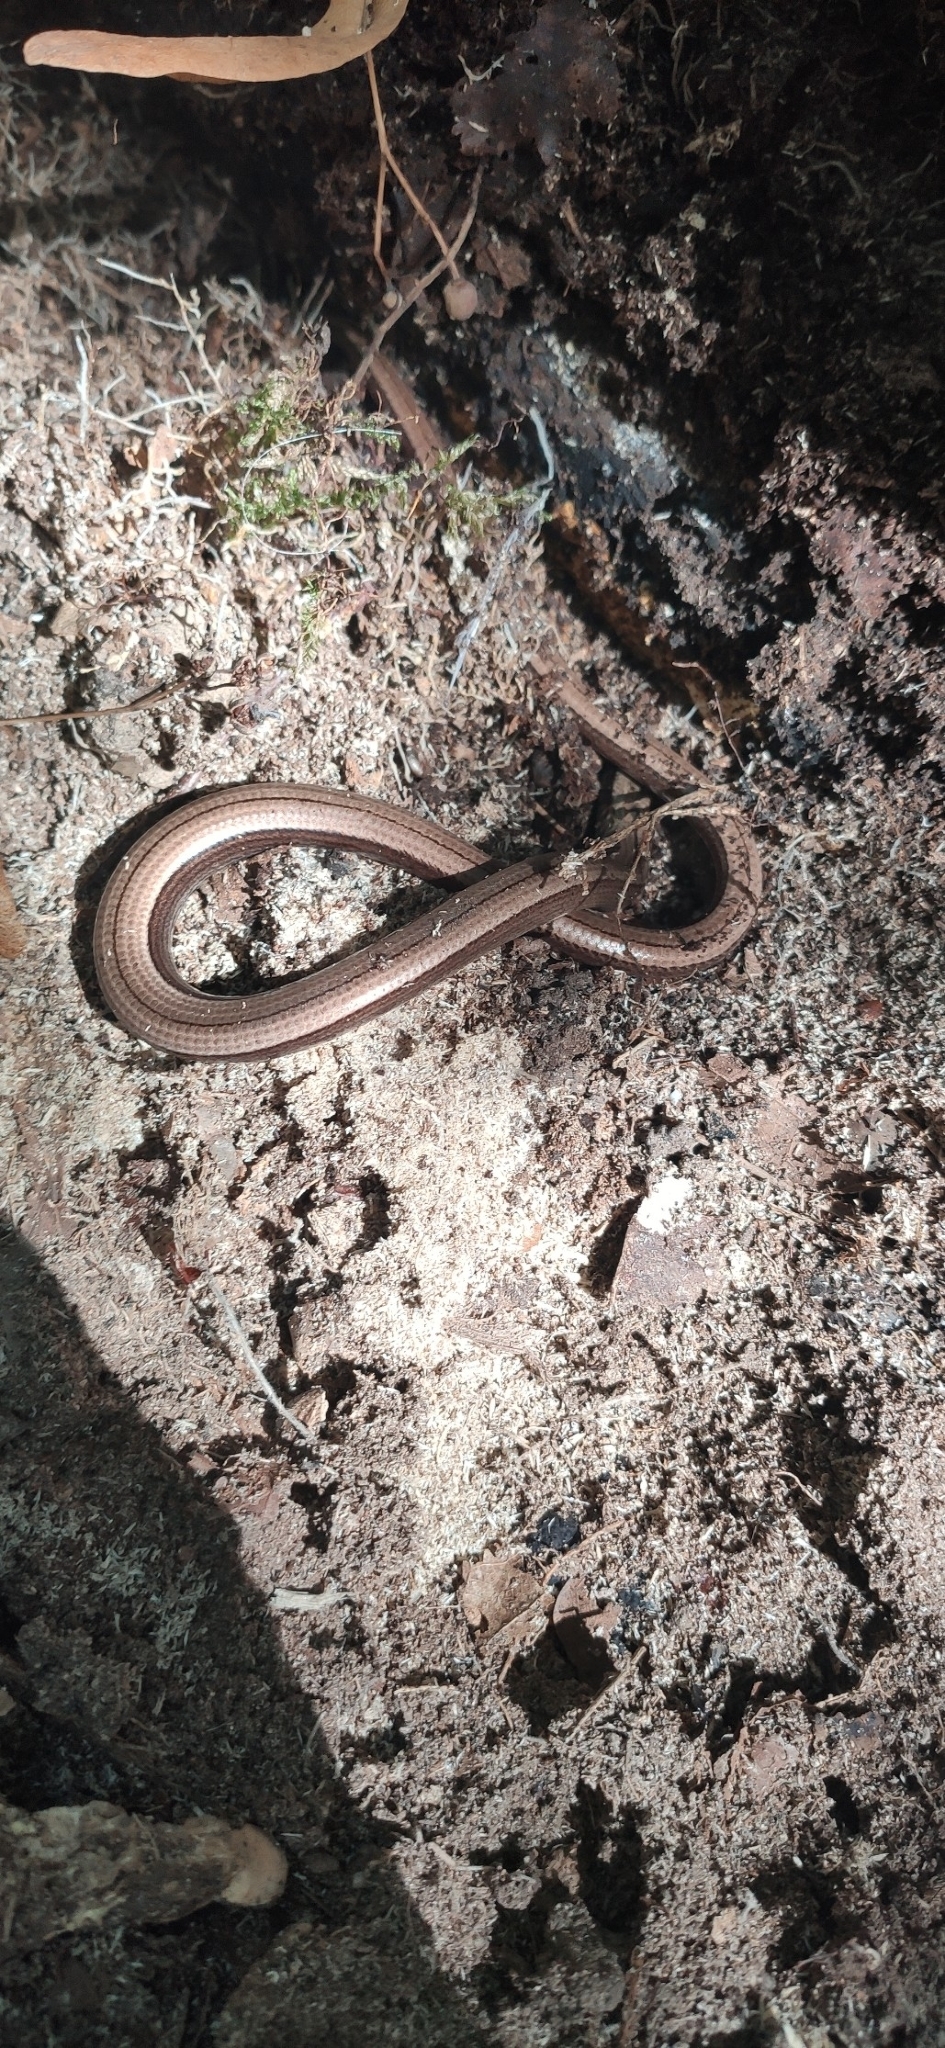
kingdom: Animalia
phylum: Chordata
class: Squamata
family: Anguidae
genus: Anguis
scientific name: Anguis fragilis
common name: Slow worm
